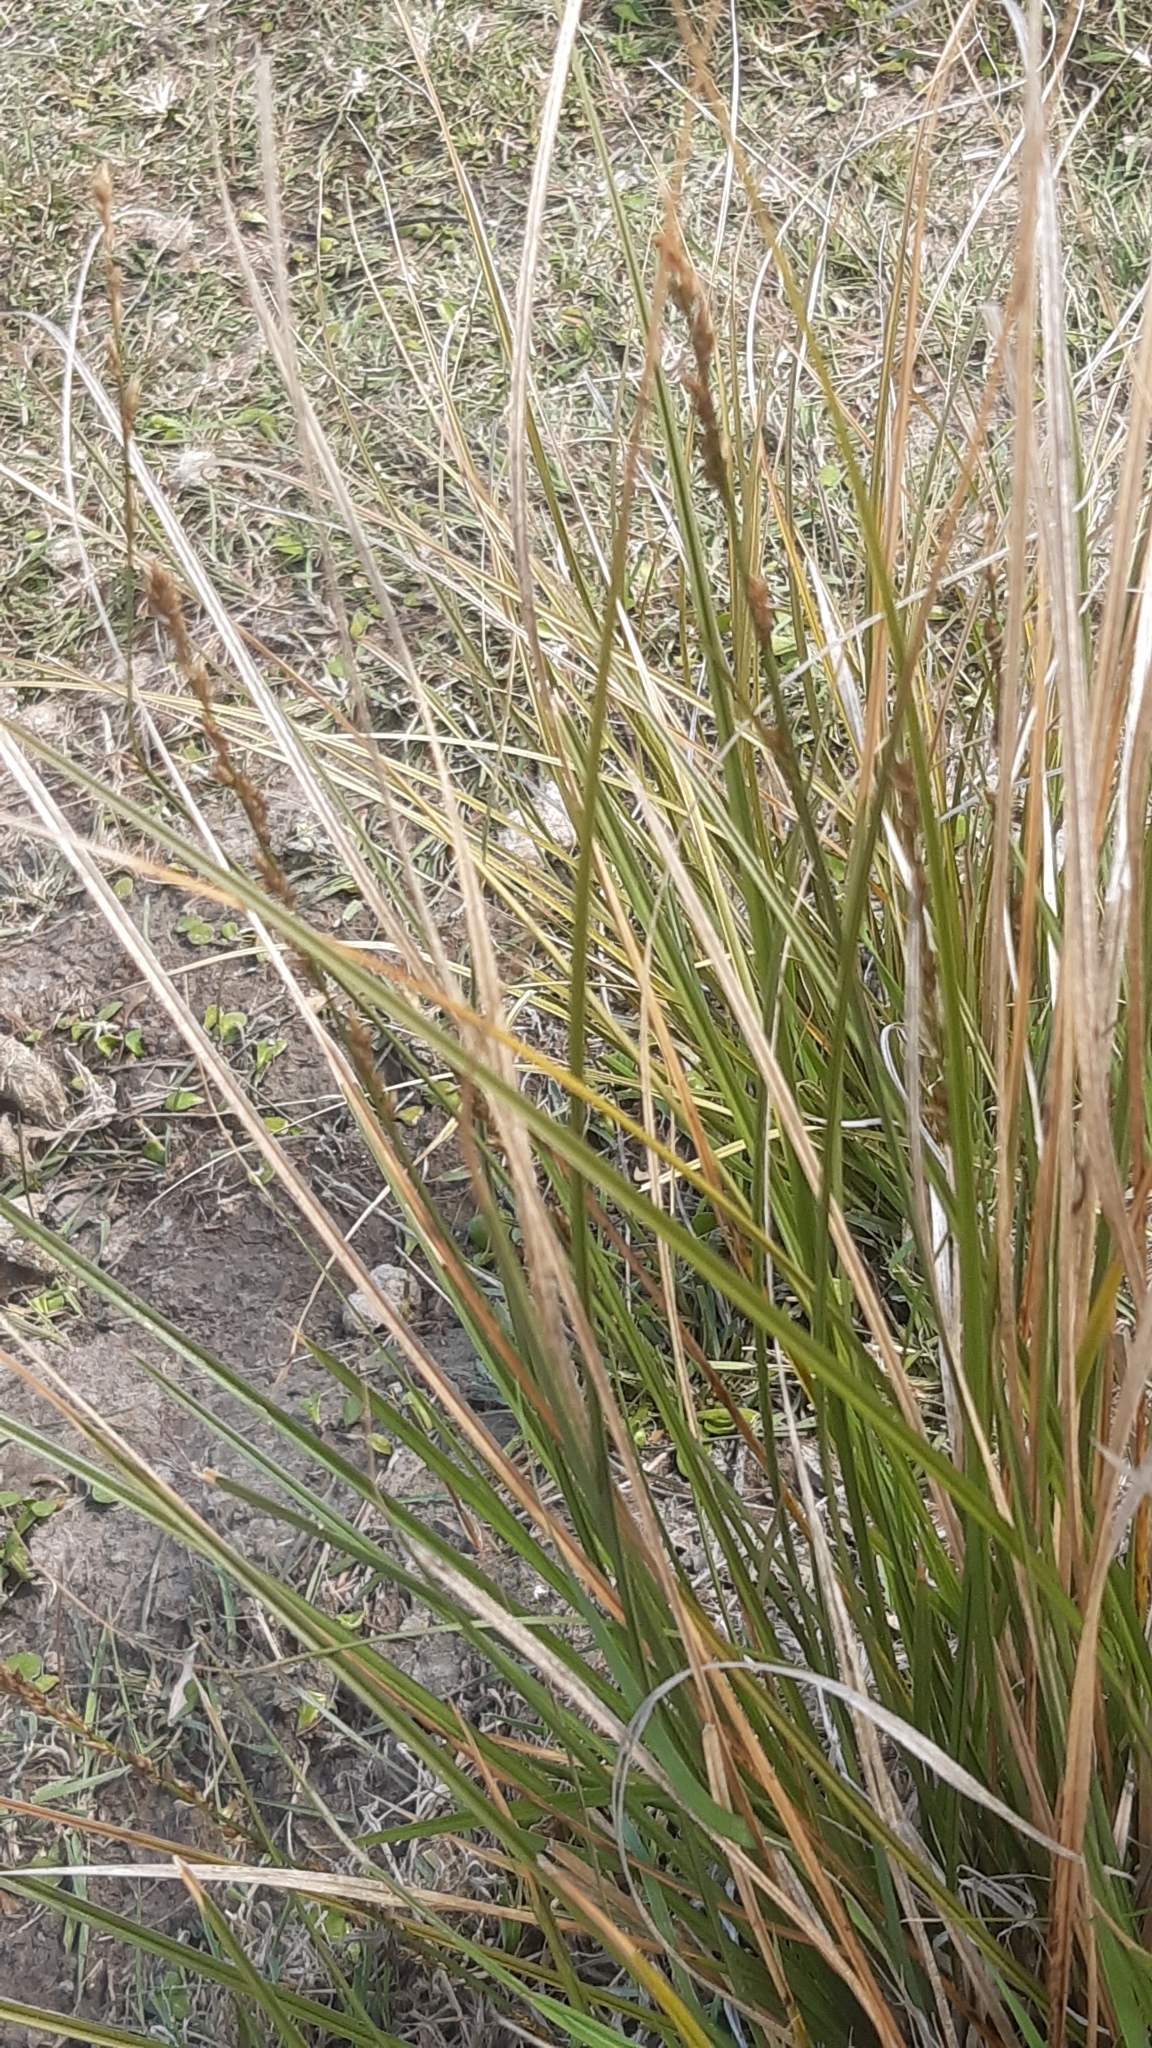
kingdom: Plantae
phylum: Tracheophyta
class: Liliopsida
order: Poales
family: Cyperaceae
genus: Carex
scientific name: Carex virgata
